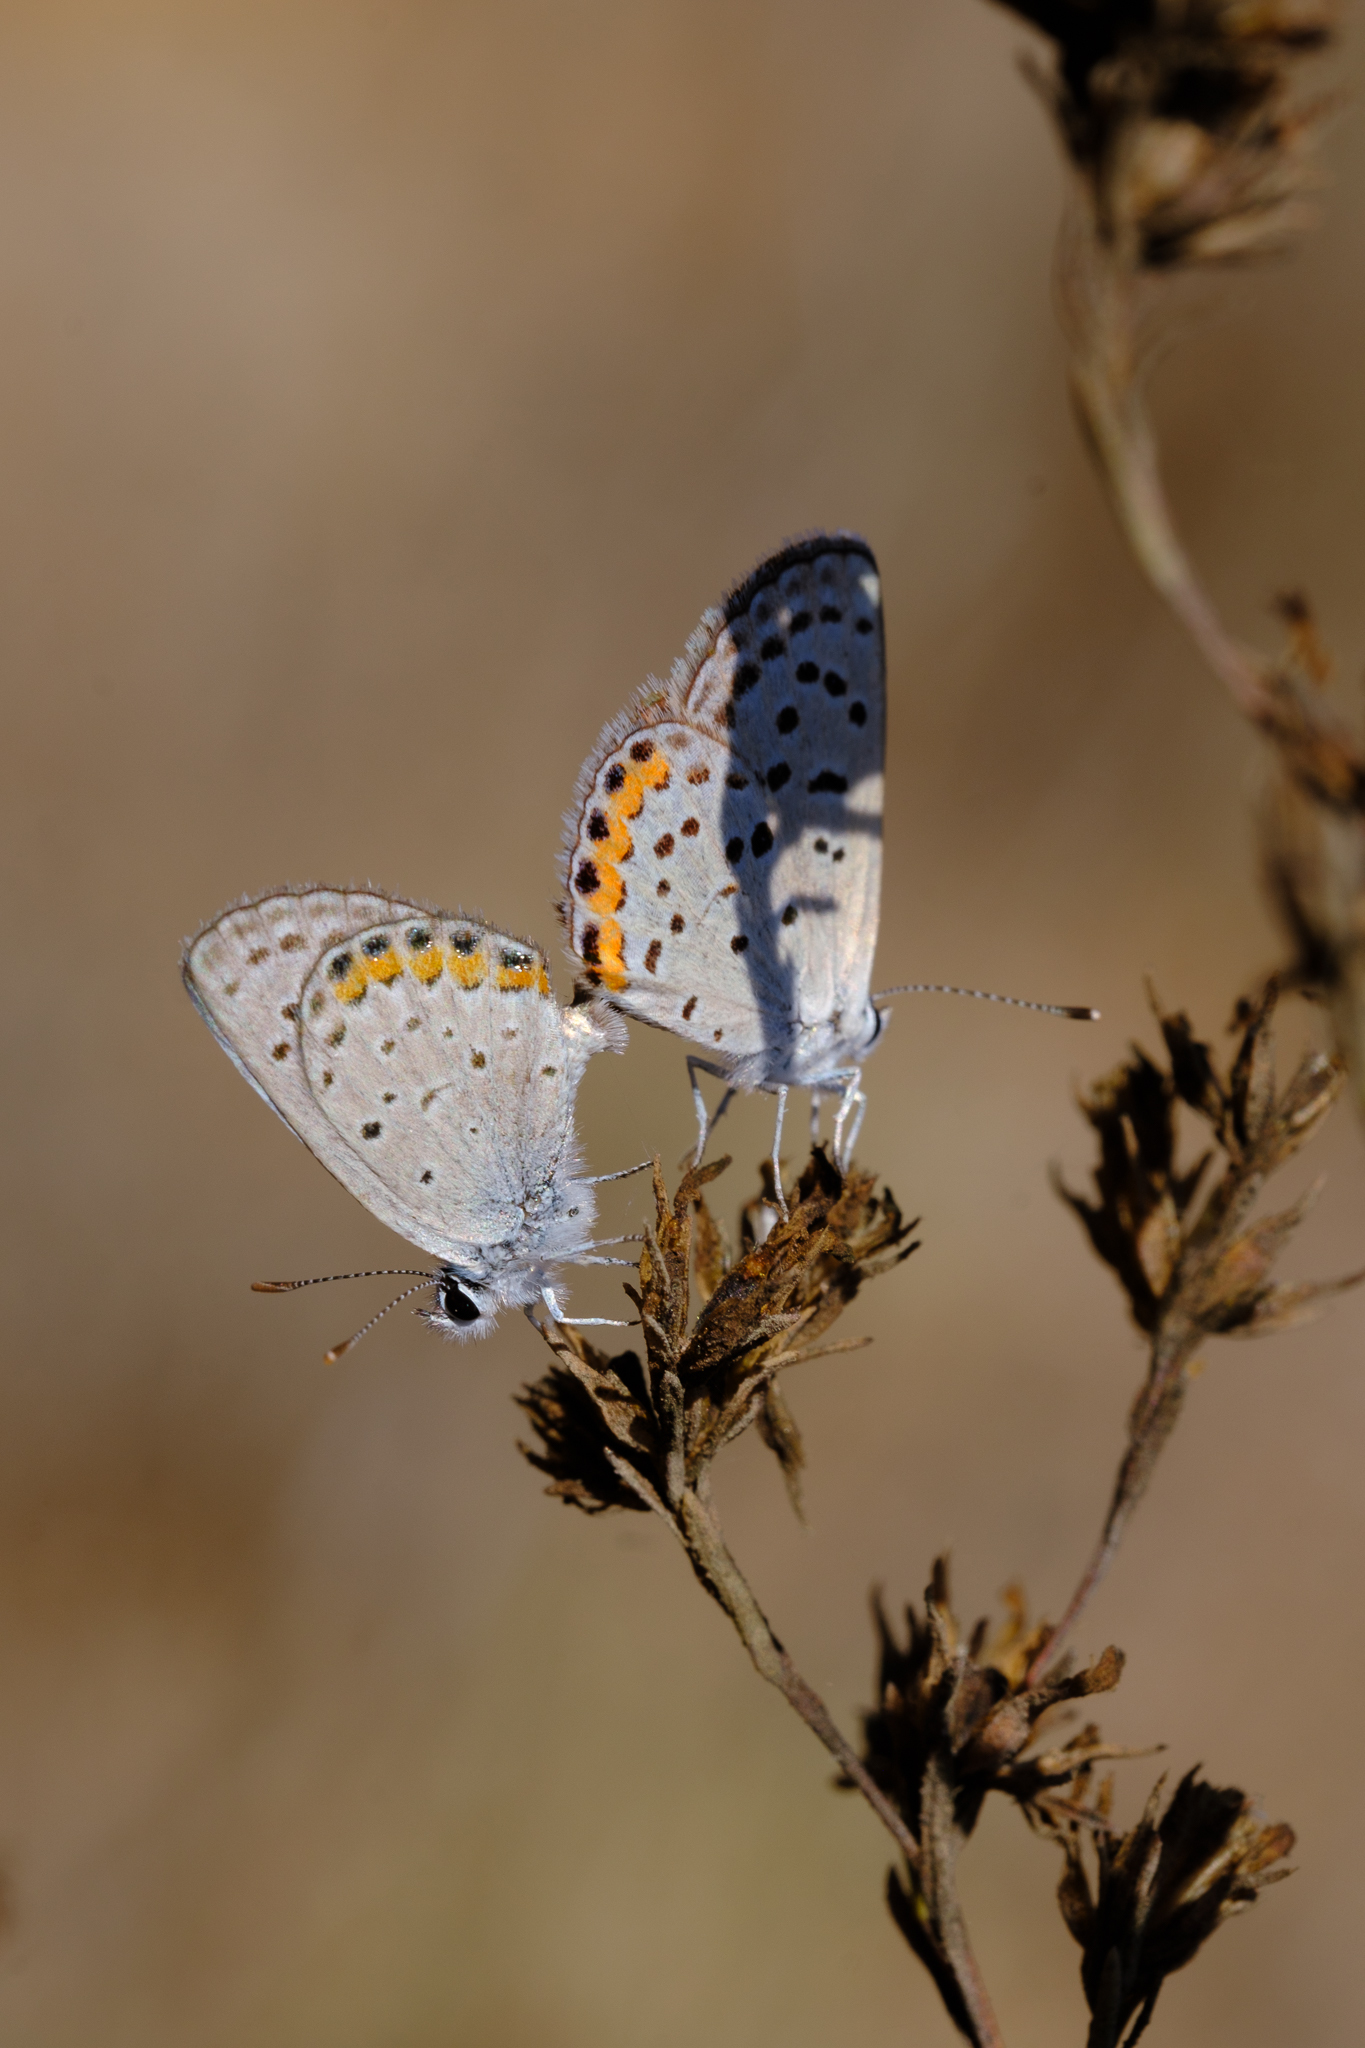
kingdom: Animalia
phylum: Arthropoda
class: Insecta
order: Lepidoptera
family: Lycaenidae
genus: Icaricia
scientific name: Icaricia acmon
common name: Acmon blue
